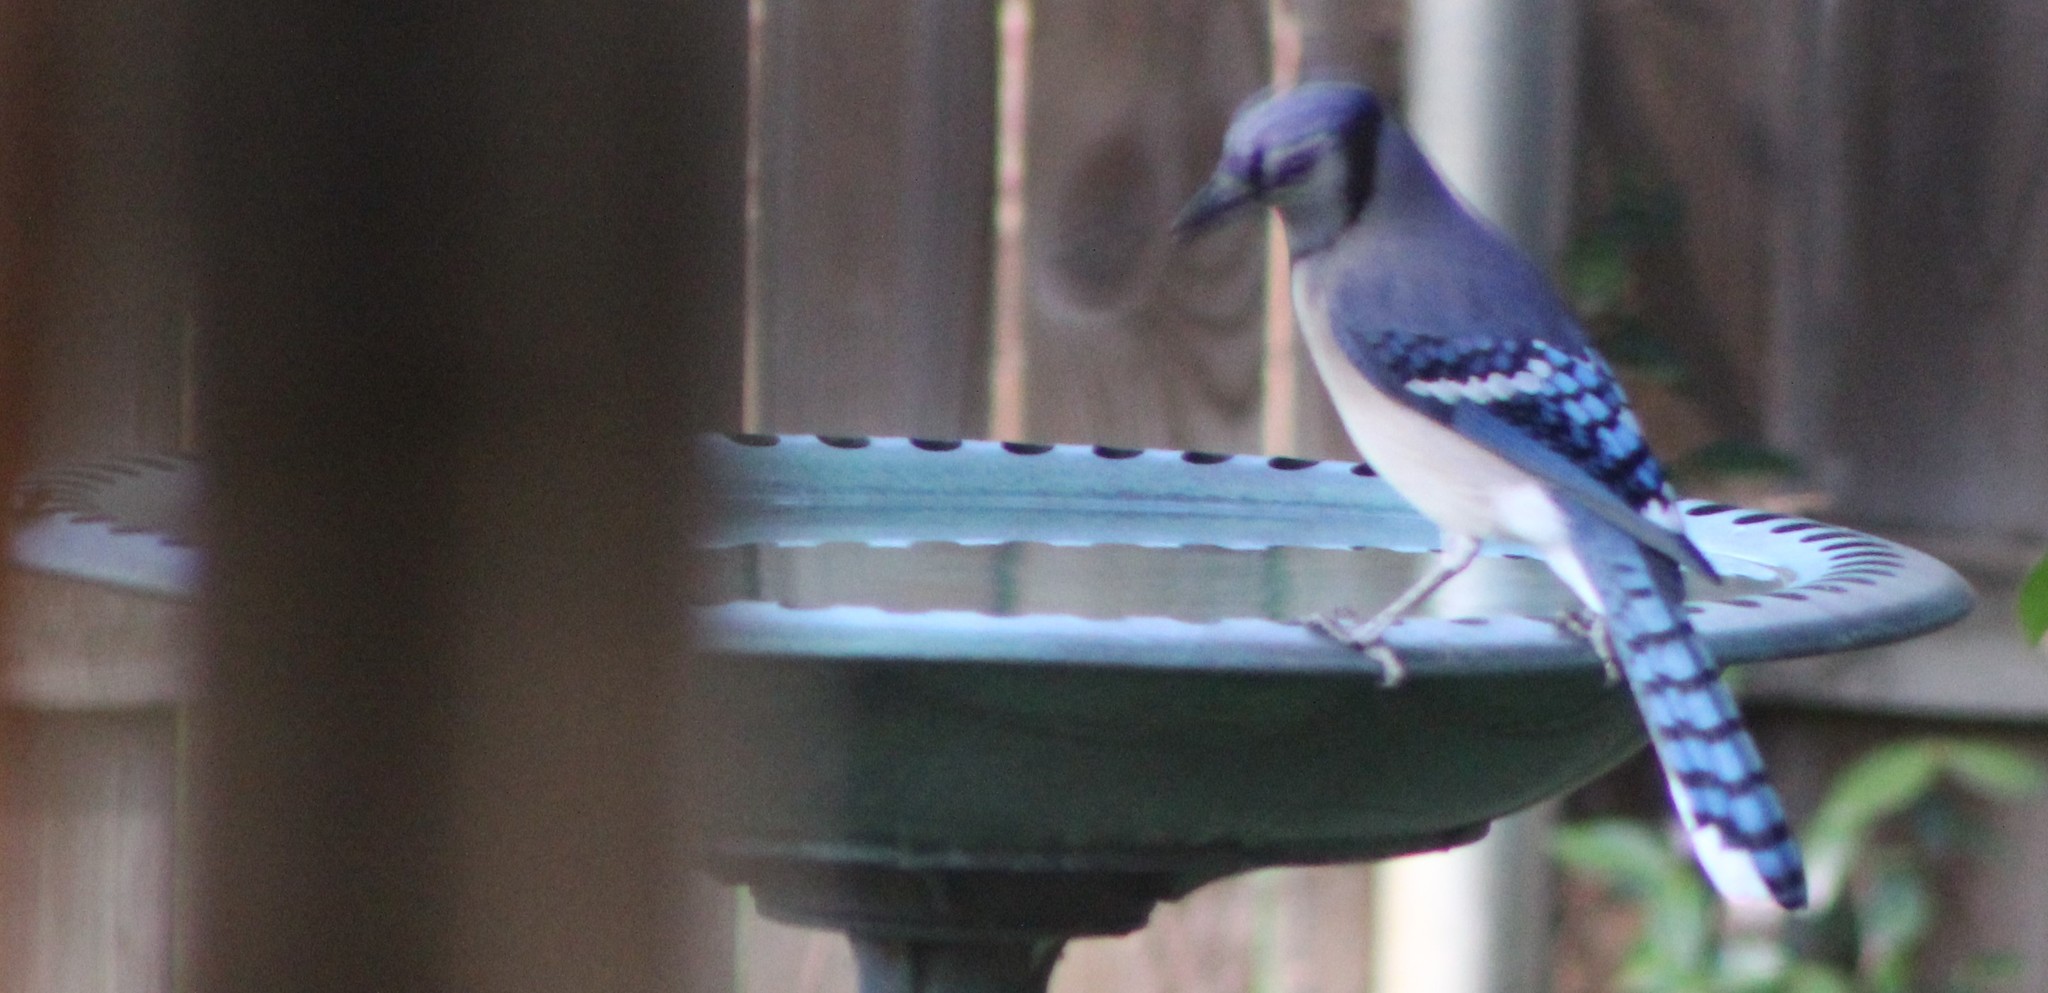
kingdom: Animalia
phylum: Chordata
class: Aves
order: Passeriformes
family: Corvidae
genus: Cyanocitta
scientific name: Cyanocitta cristata
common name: Blue jay
